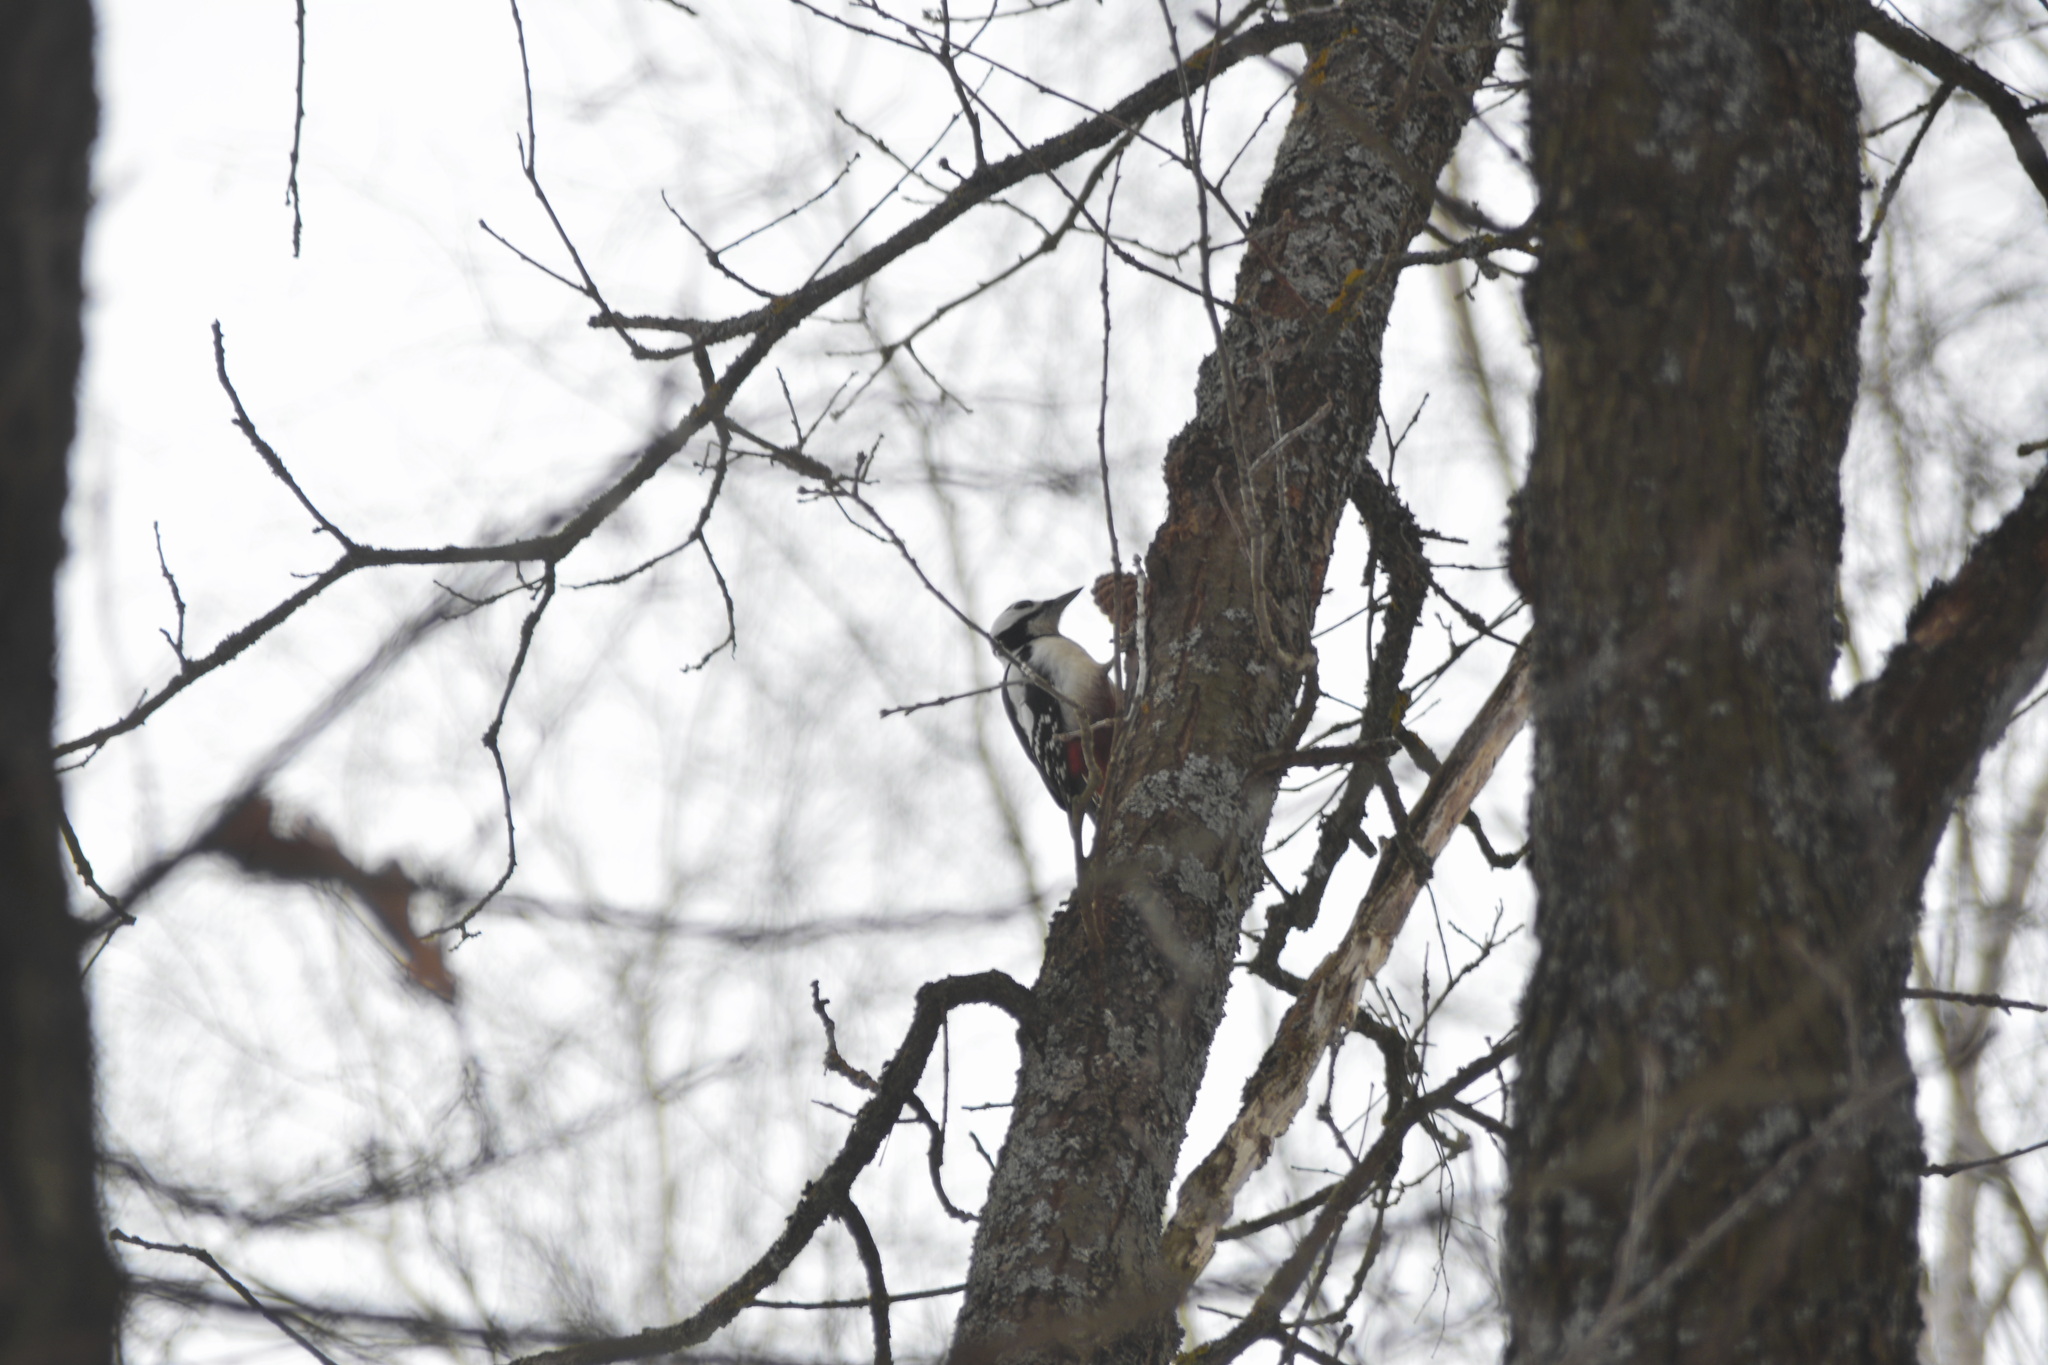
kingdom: Animalia
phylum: Chordata
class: Aves
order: Piciformes
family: Picidae
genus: Dendrocopos
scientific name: Dendrocopos major
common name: Great spotted woodpecker
